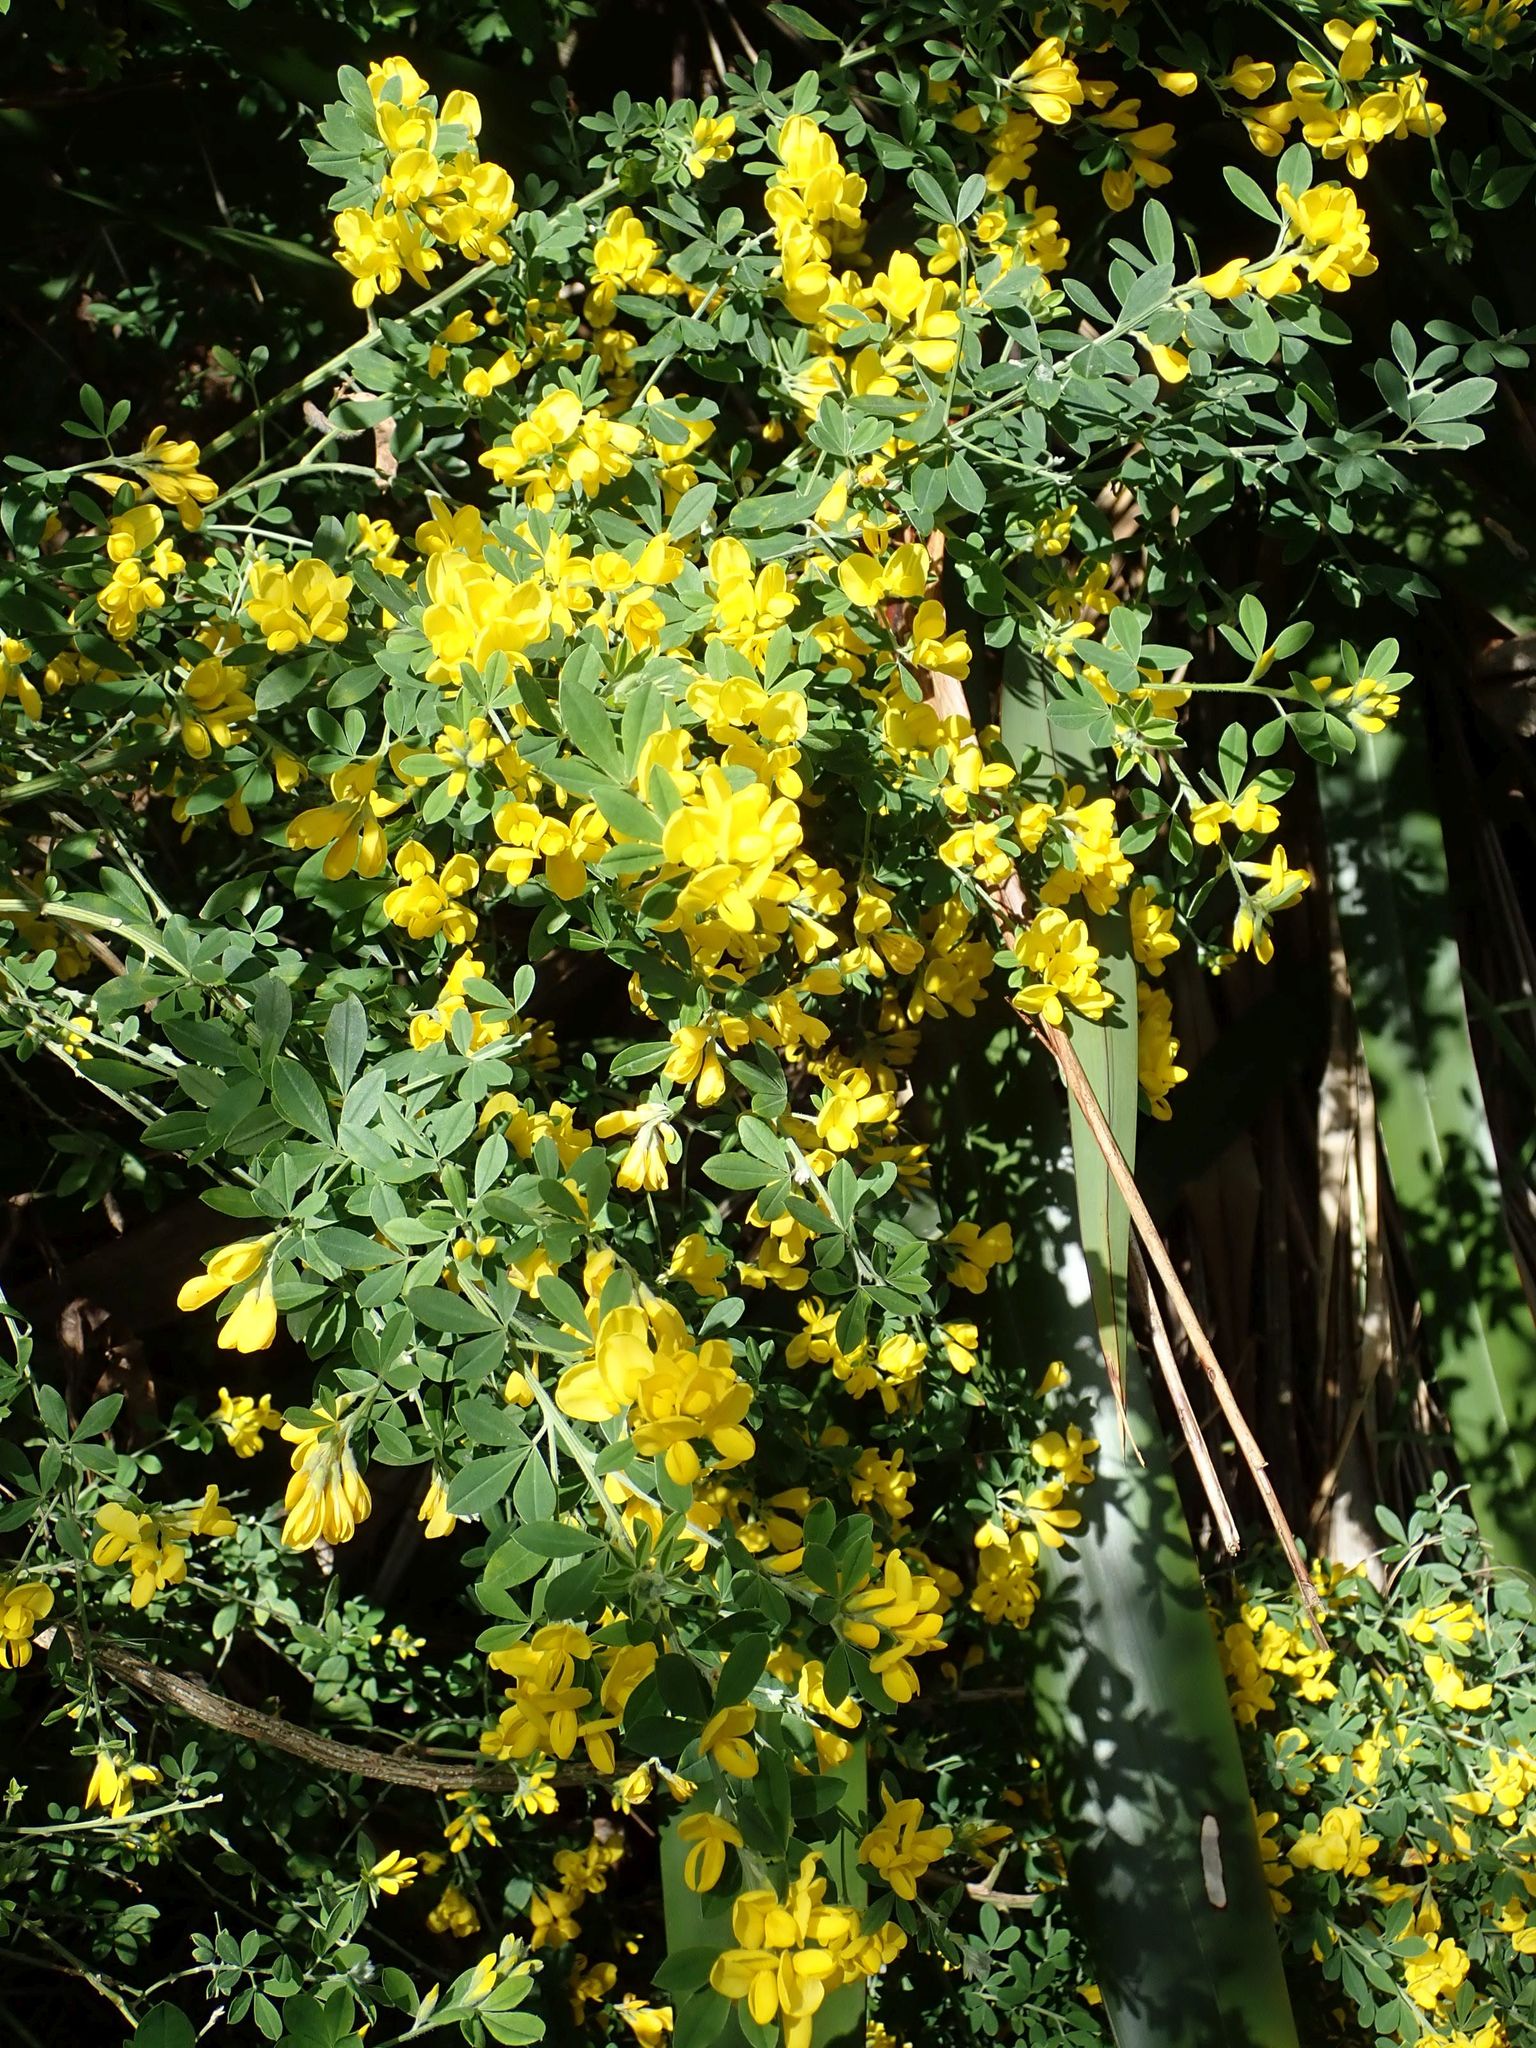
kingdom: Plantae
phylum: Tracheophyta
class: Magnoliopsida
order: Fabales
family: Fabaceae
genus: Genista
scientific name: Genista monspessulana
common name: Montpellier broom
